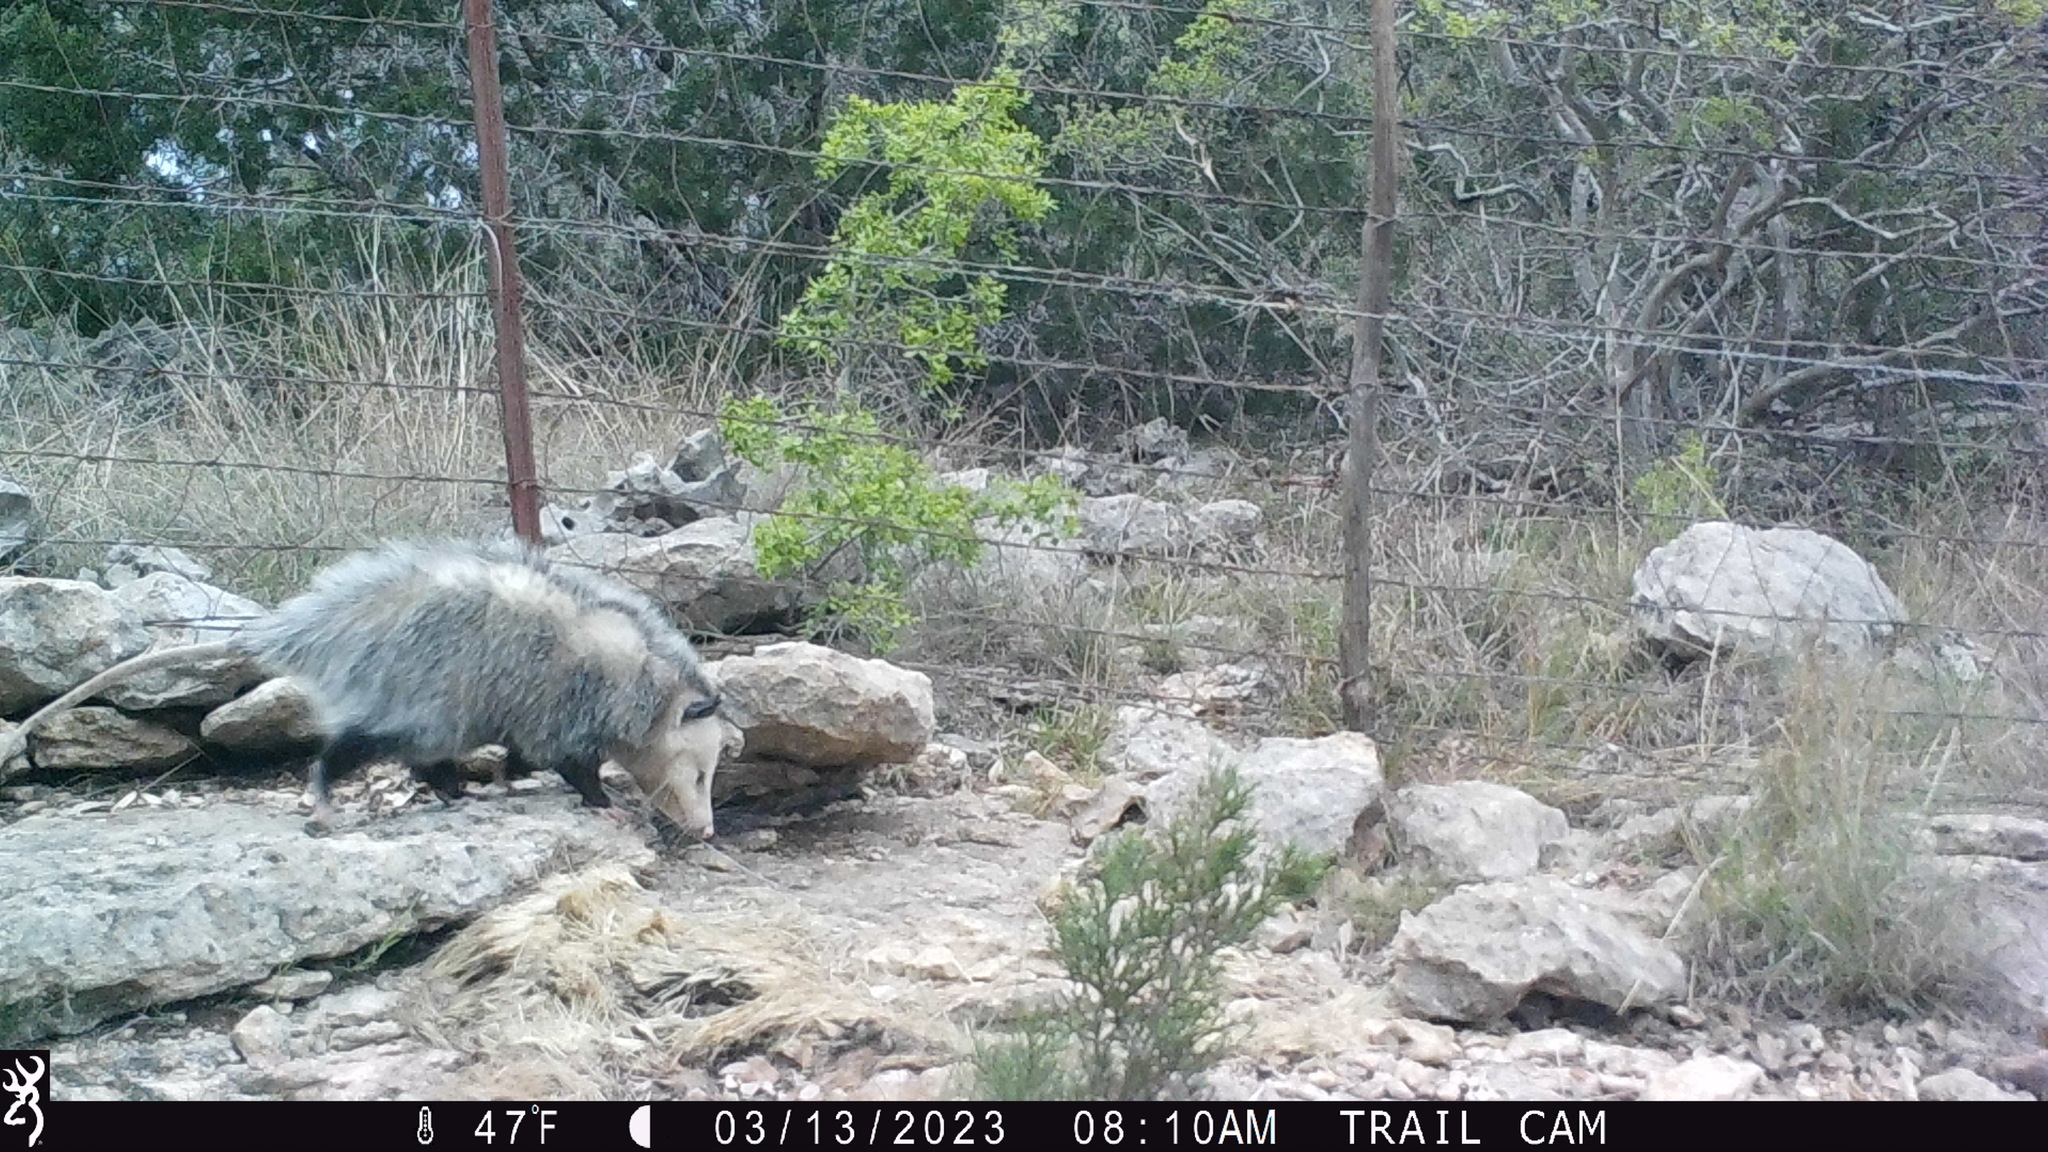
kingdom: Animalia
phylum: Chordata
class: Mammalia
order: Didelphimorphia
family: Didelphidae
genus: Didelphis
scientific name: Didelphis virginiana
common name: Virginia opossum
